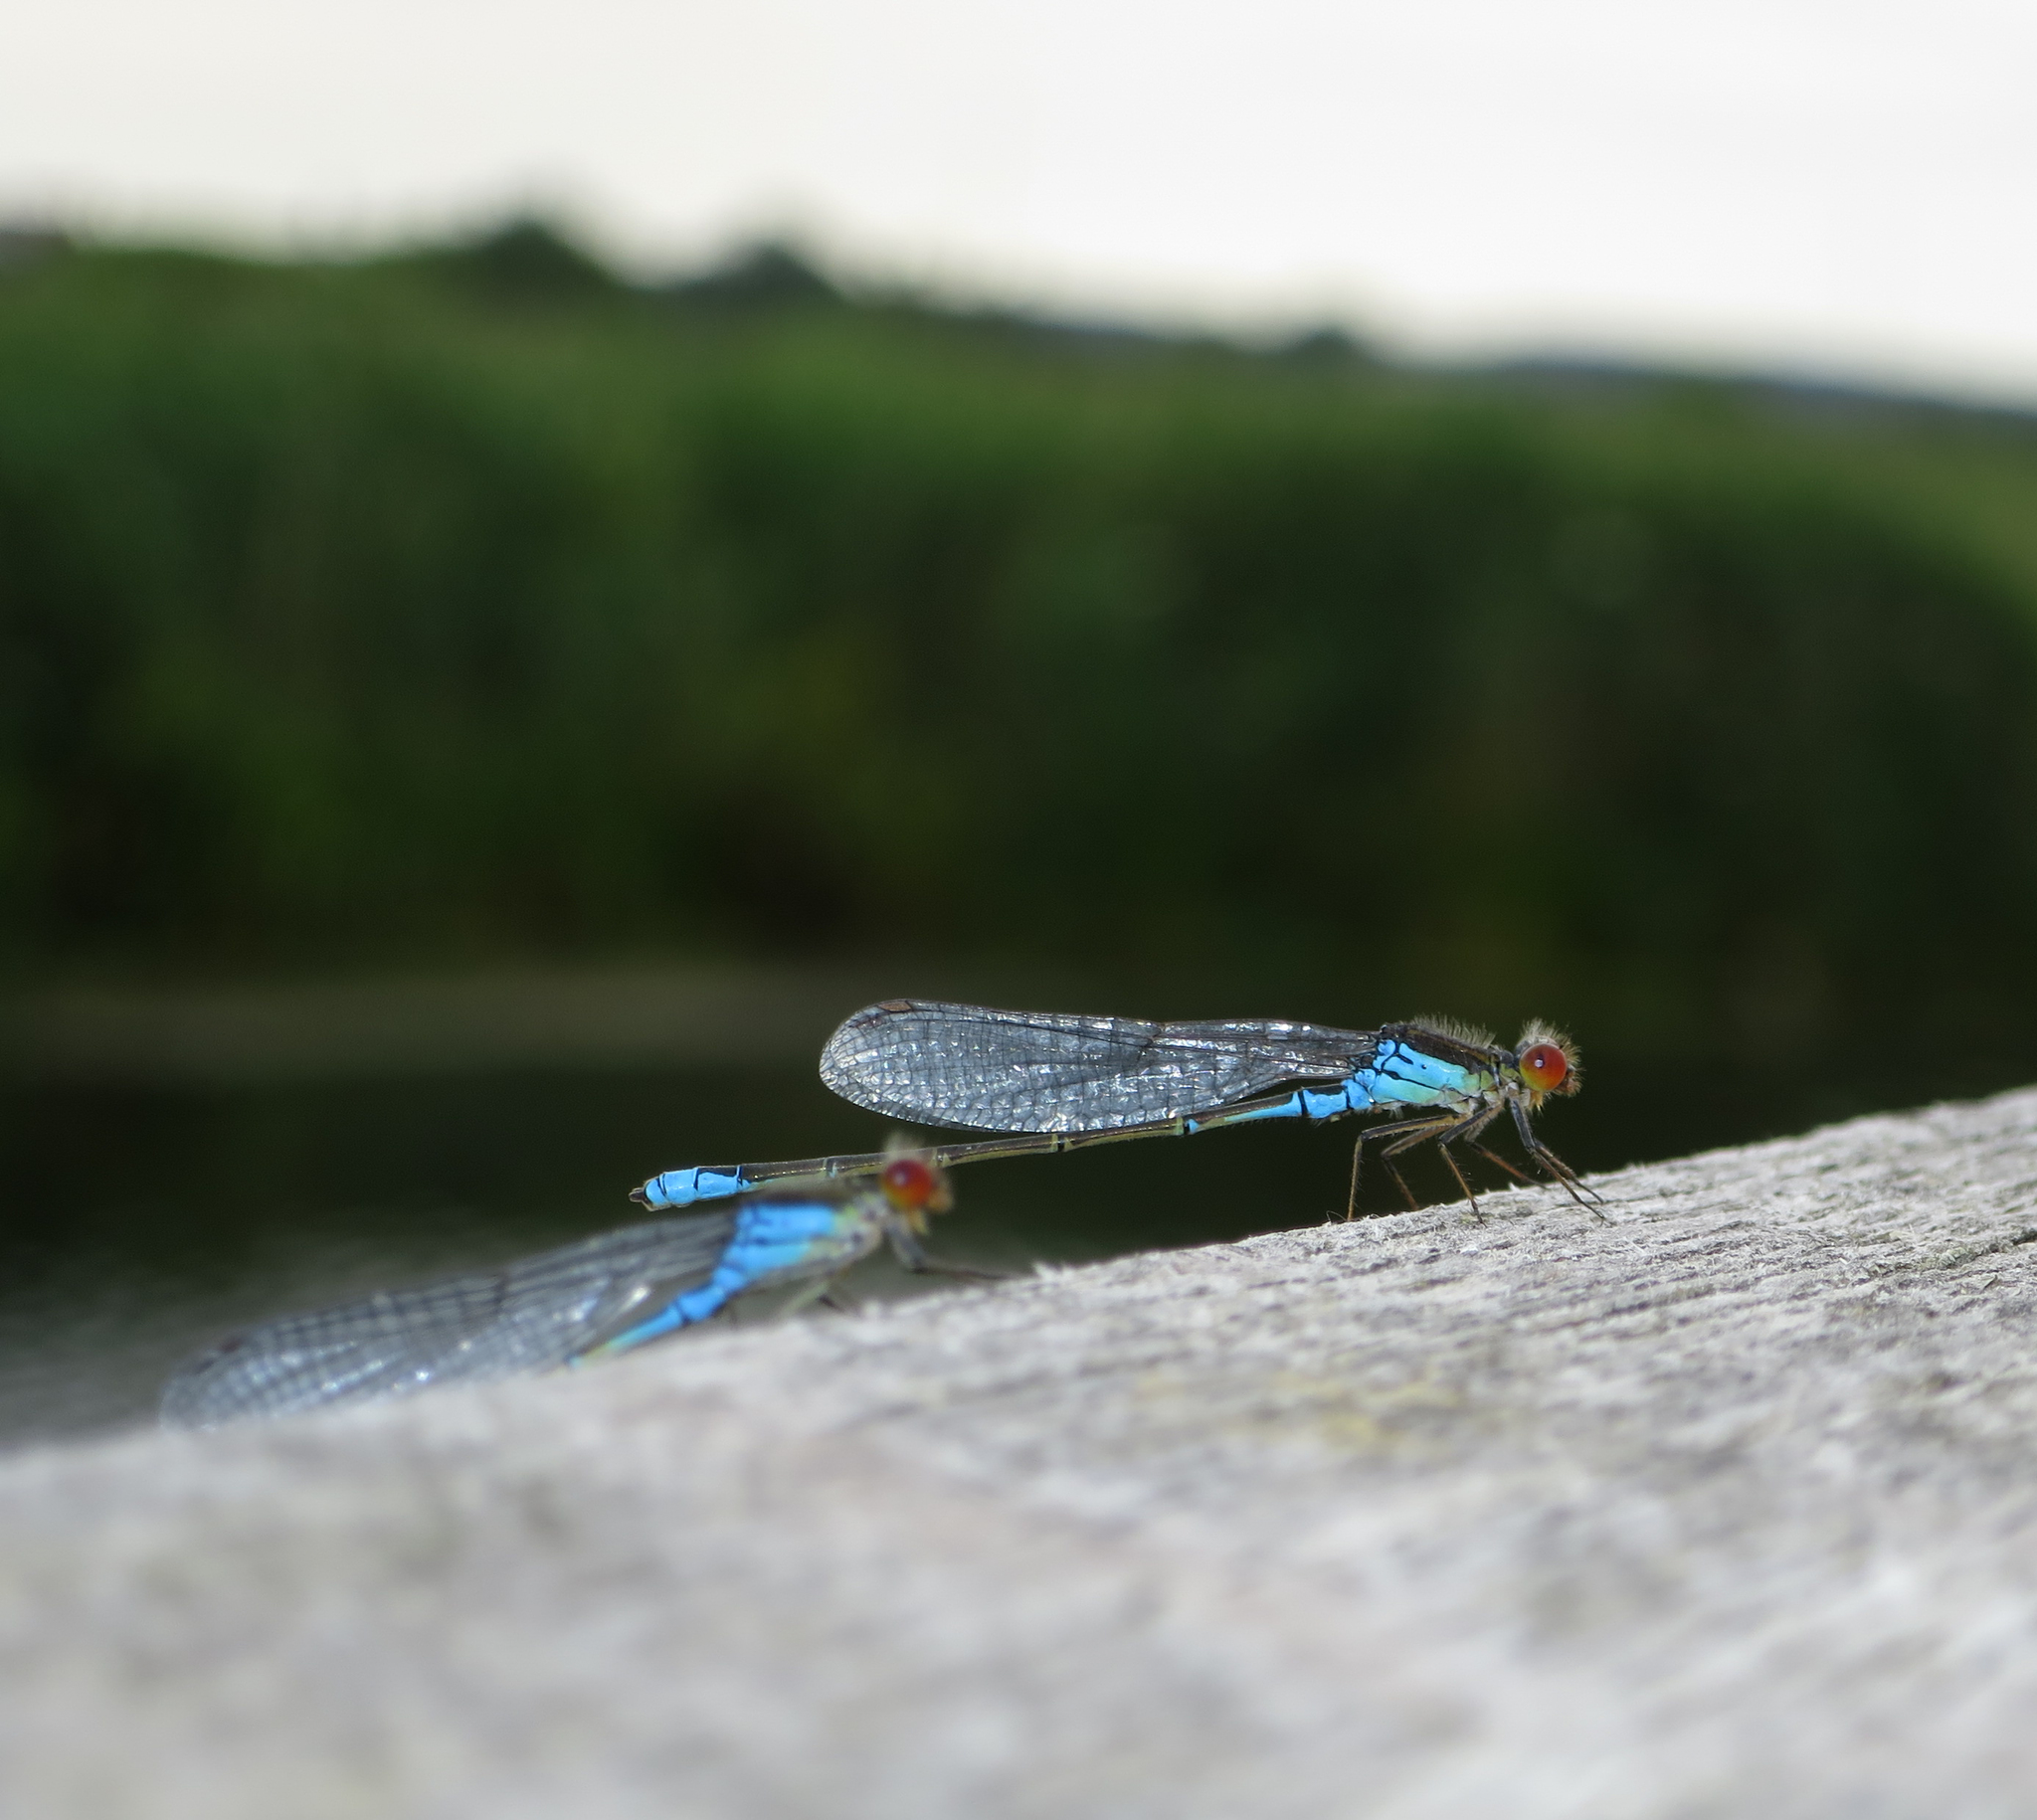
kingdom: Animalia
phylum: Arthropoda
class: Insecta
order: Odonata
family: Coenagrionidae
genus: Erythromma
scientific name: Erythromma viridulum
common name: Small red-eyed damselfly
